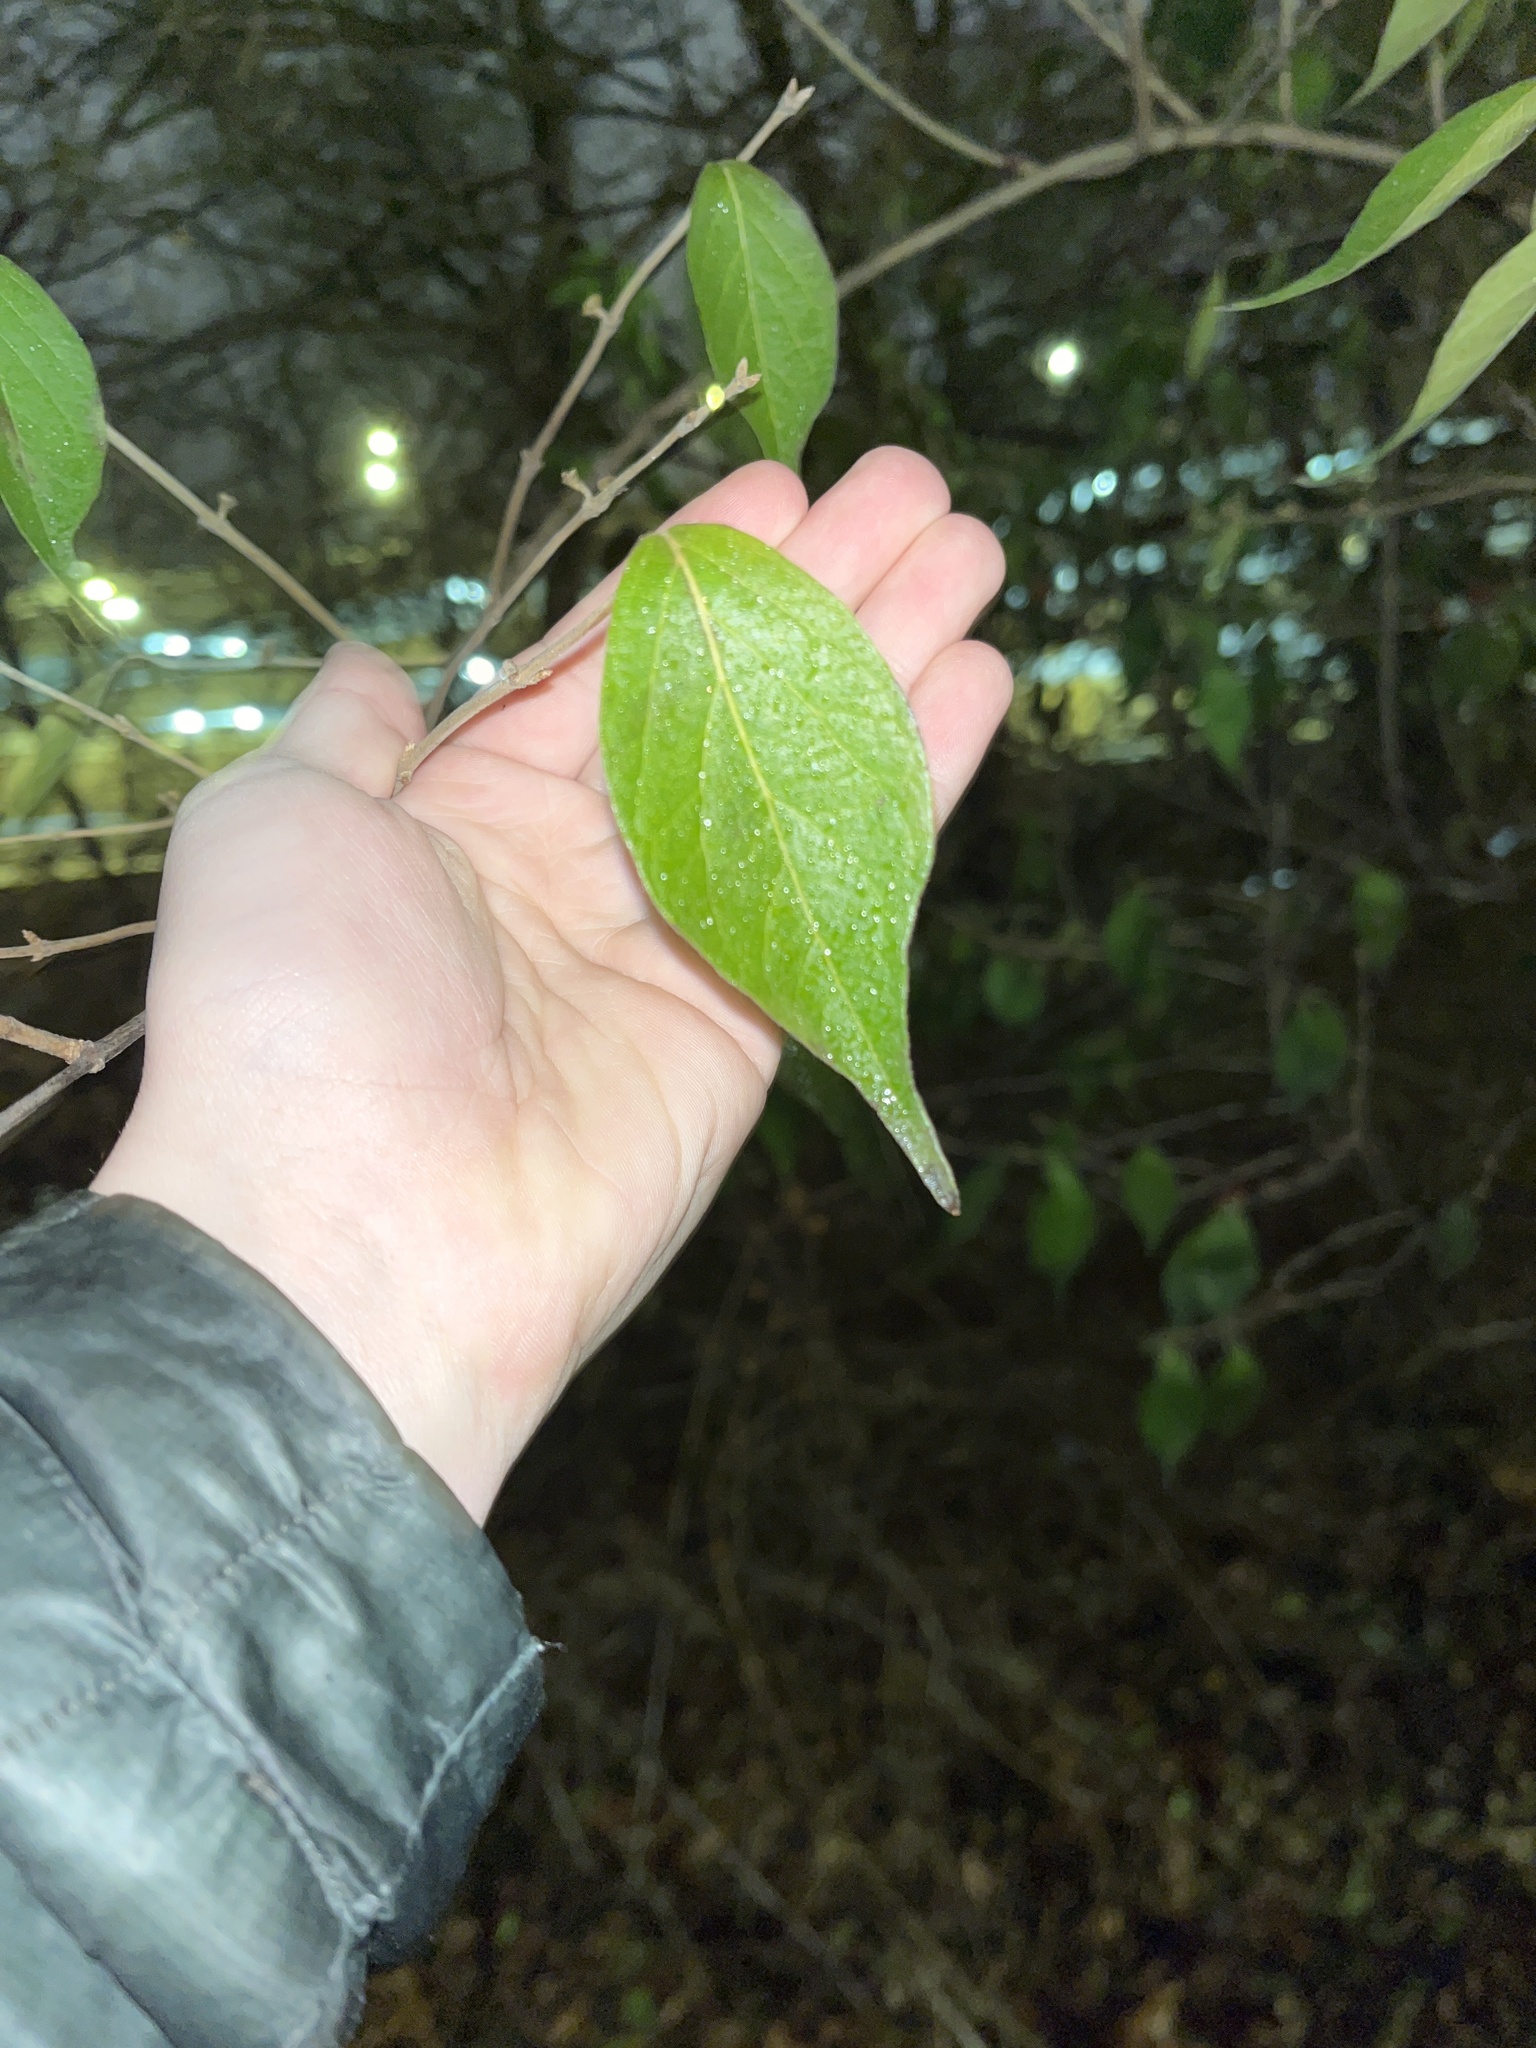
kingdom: Plantae
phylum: Tracheophyta
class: Magnoliopsida
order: Dipsacales
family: Caprifoliaceae
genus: Lonicera
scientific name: Lonicera maackii
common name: Amur honeysuckle
